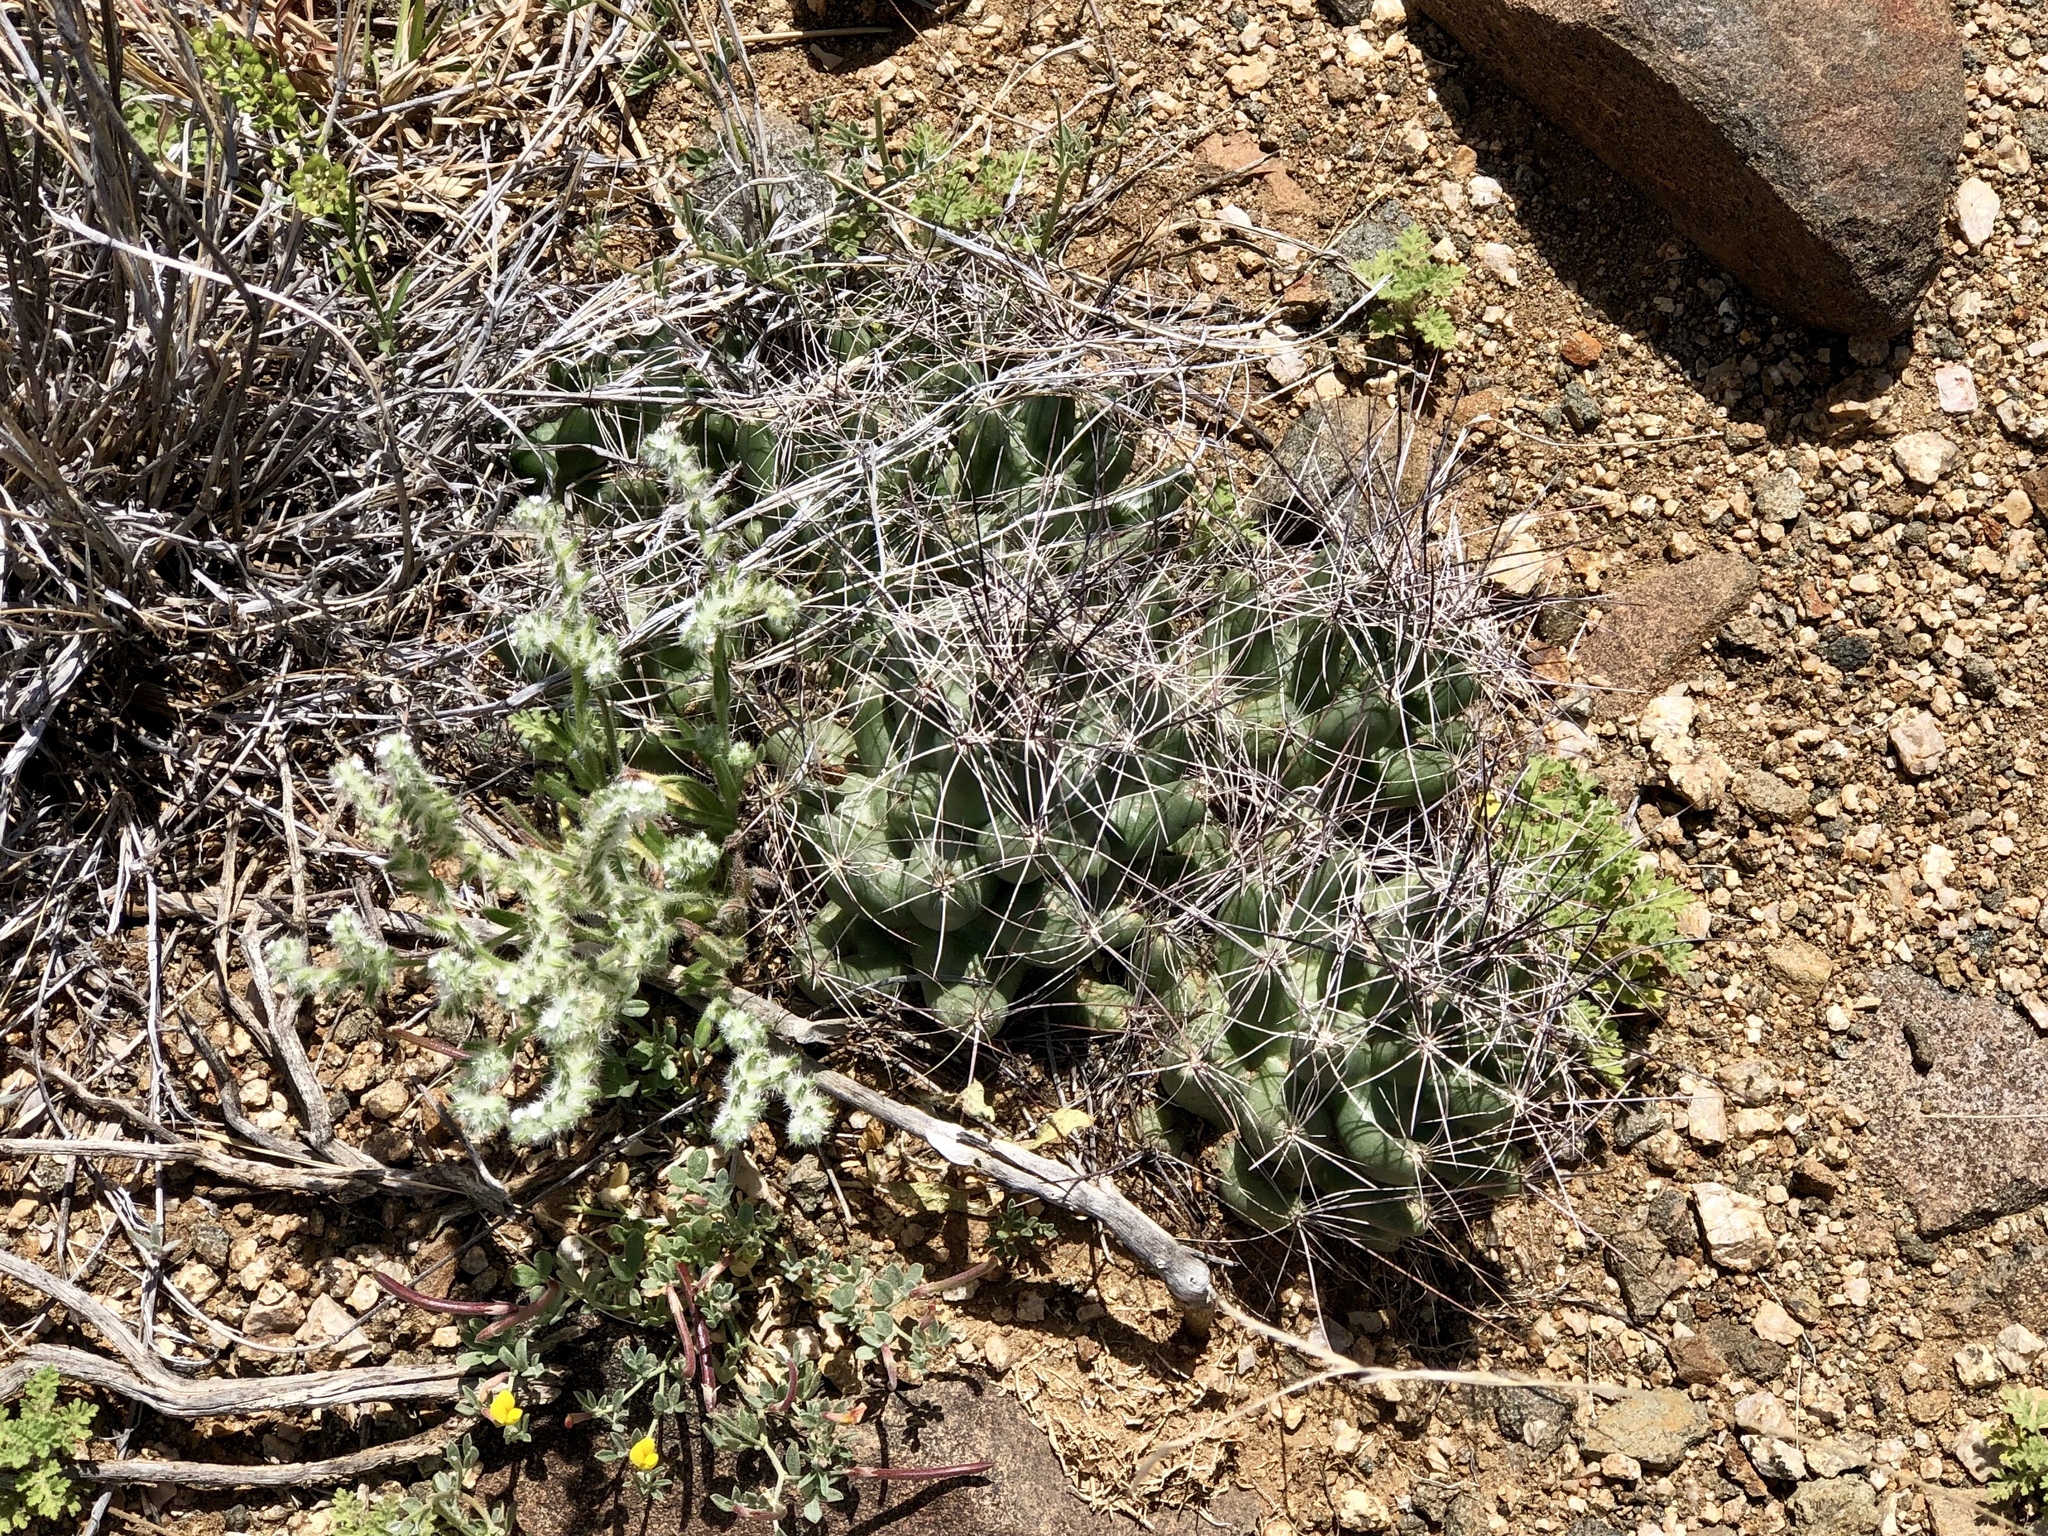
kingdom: Plantae
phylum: Tracheophyta
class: Magnoliopsida
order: Caryophyllales
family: Cactaceae
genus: Coryphantha
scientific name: Coryphantha macromeris
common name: Nipple beehive cactus
